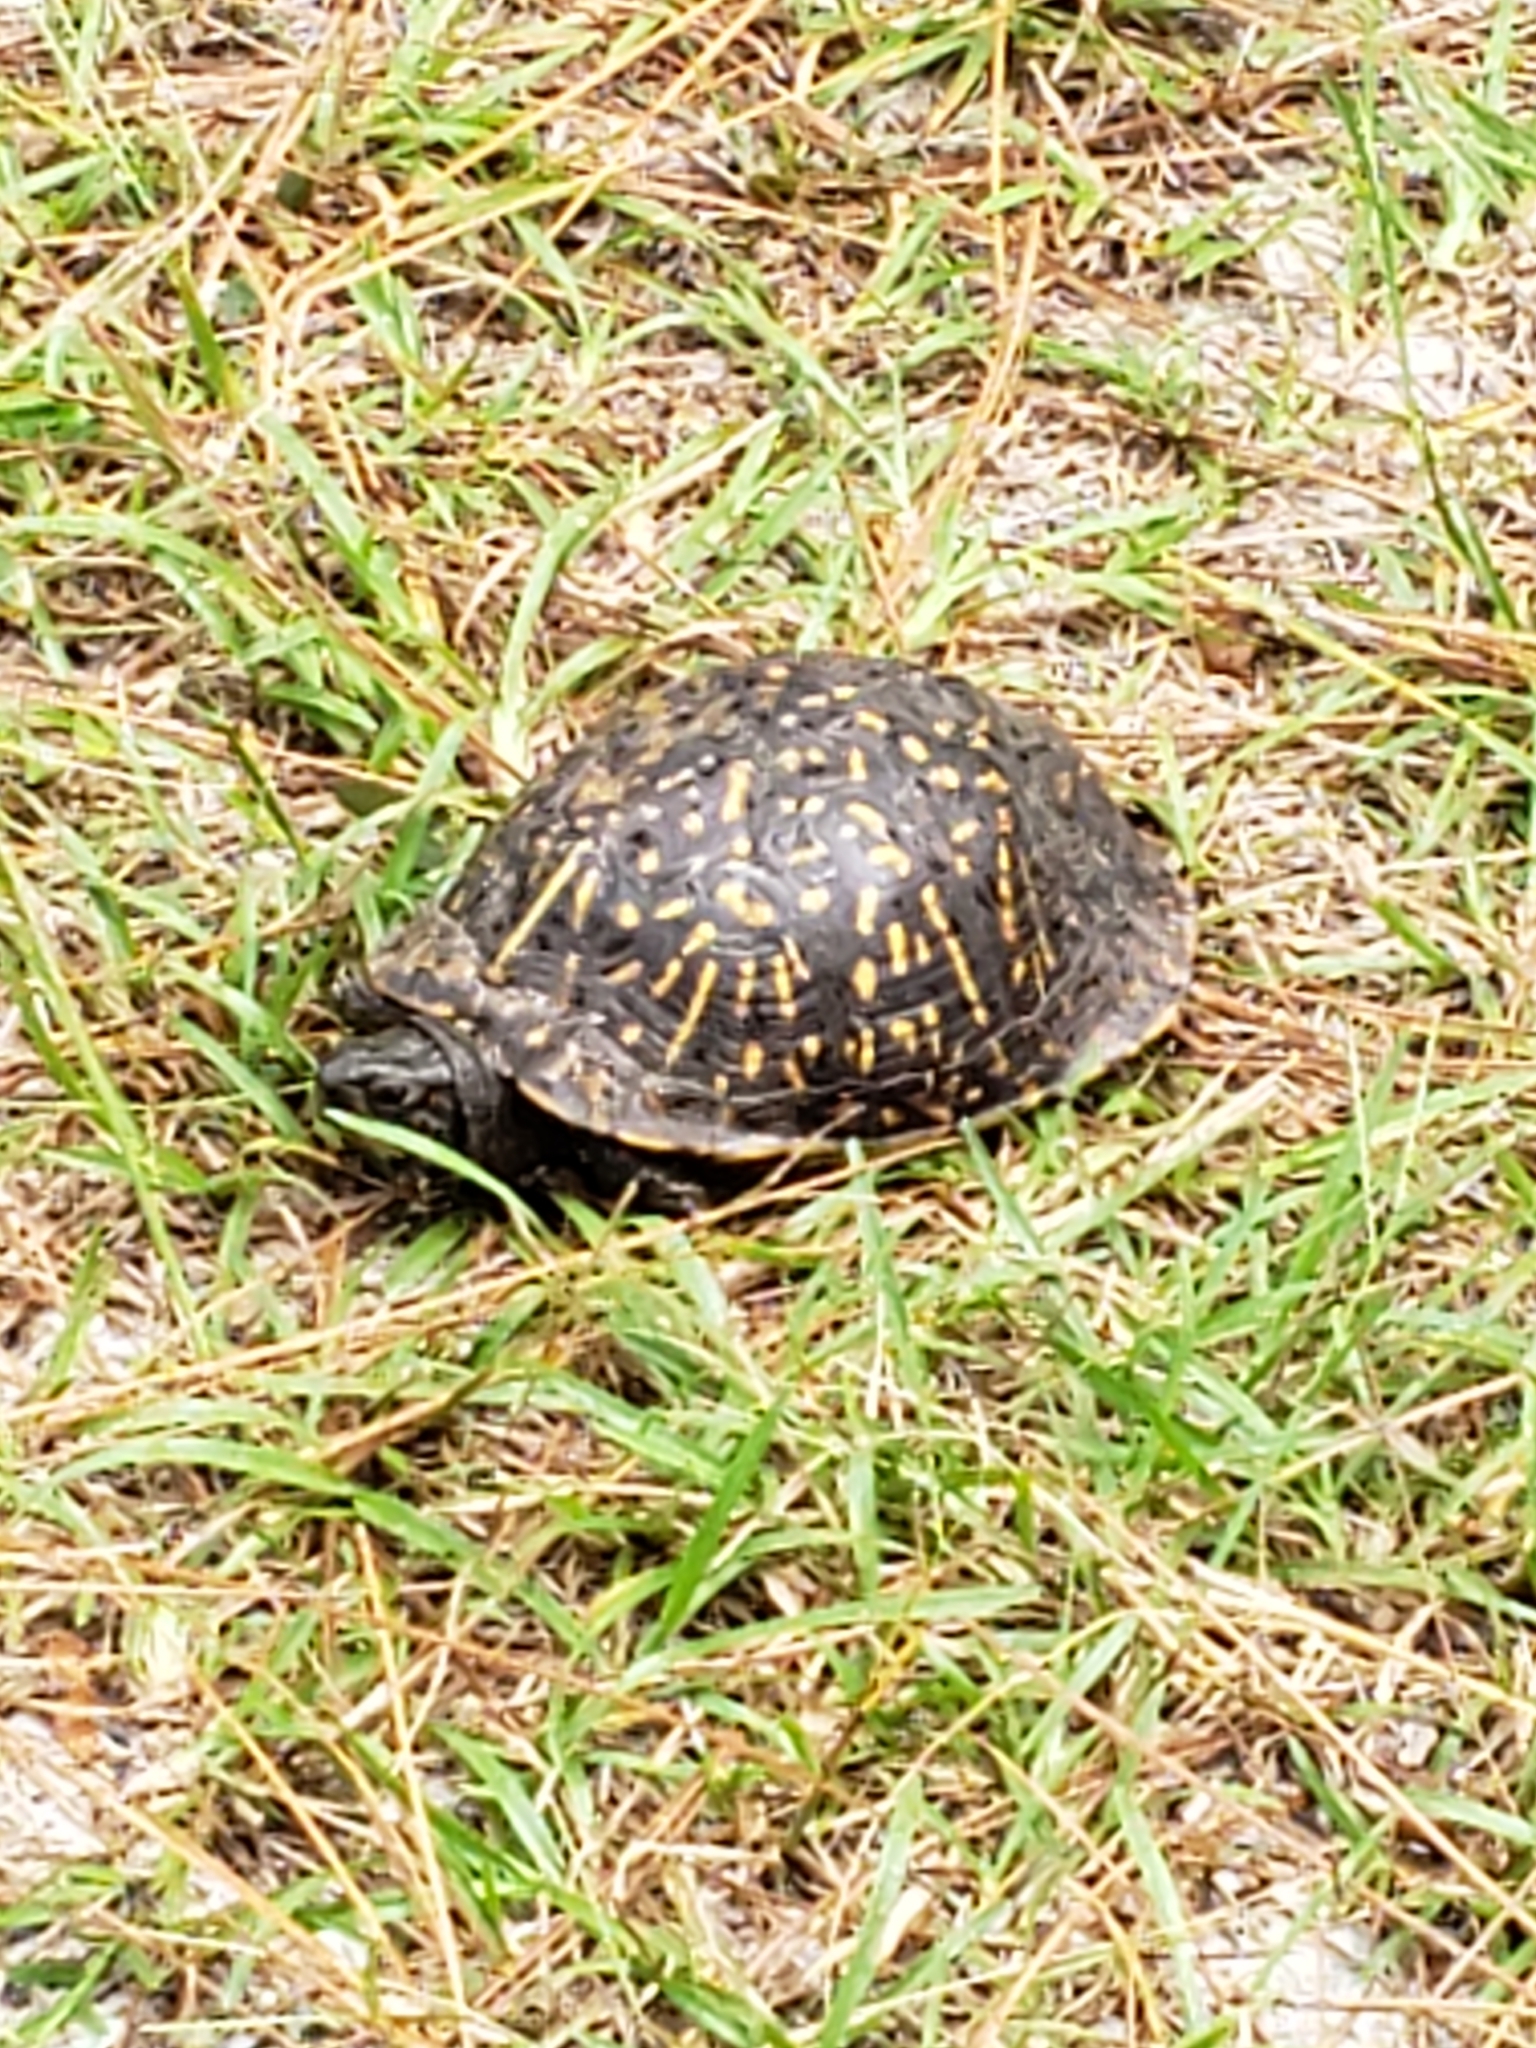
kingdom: Animalia
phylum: Chordata
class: Testudines
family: Emydidae
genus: Terrapene
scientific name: Terrapene carolina
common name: Common box turtle
